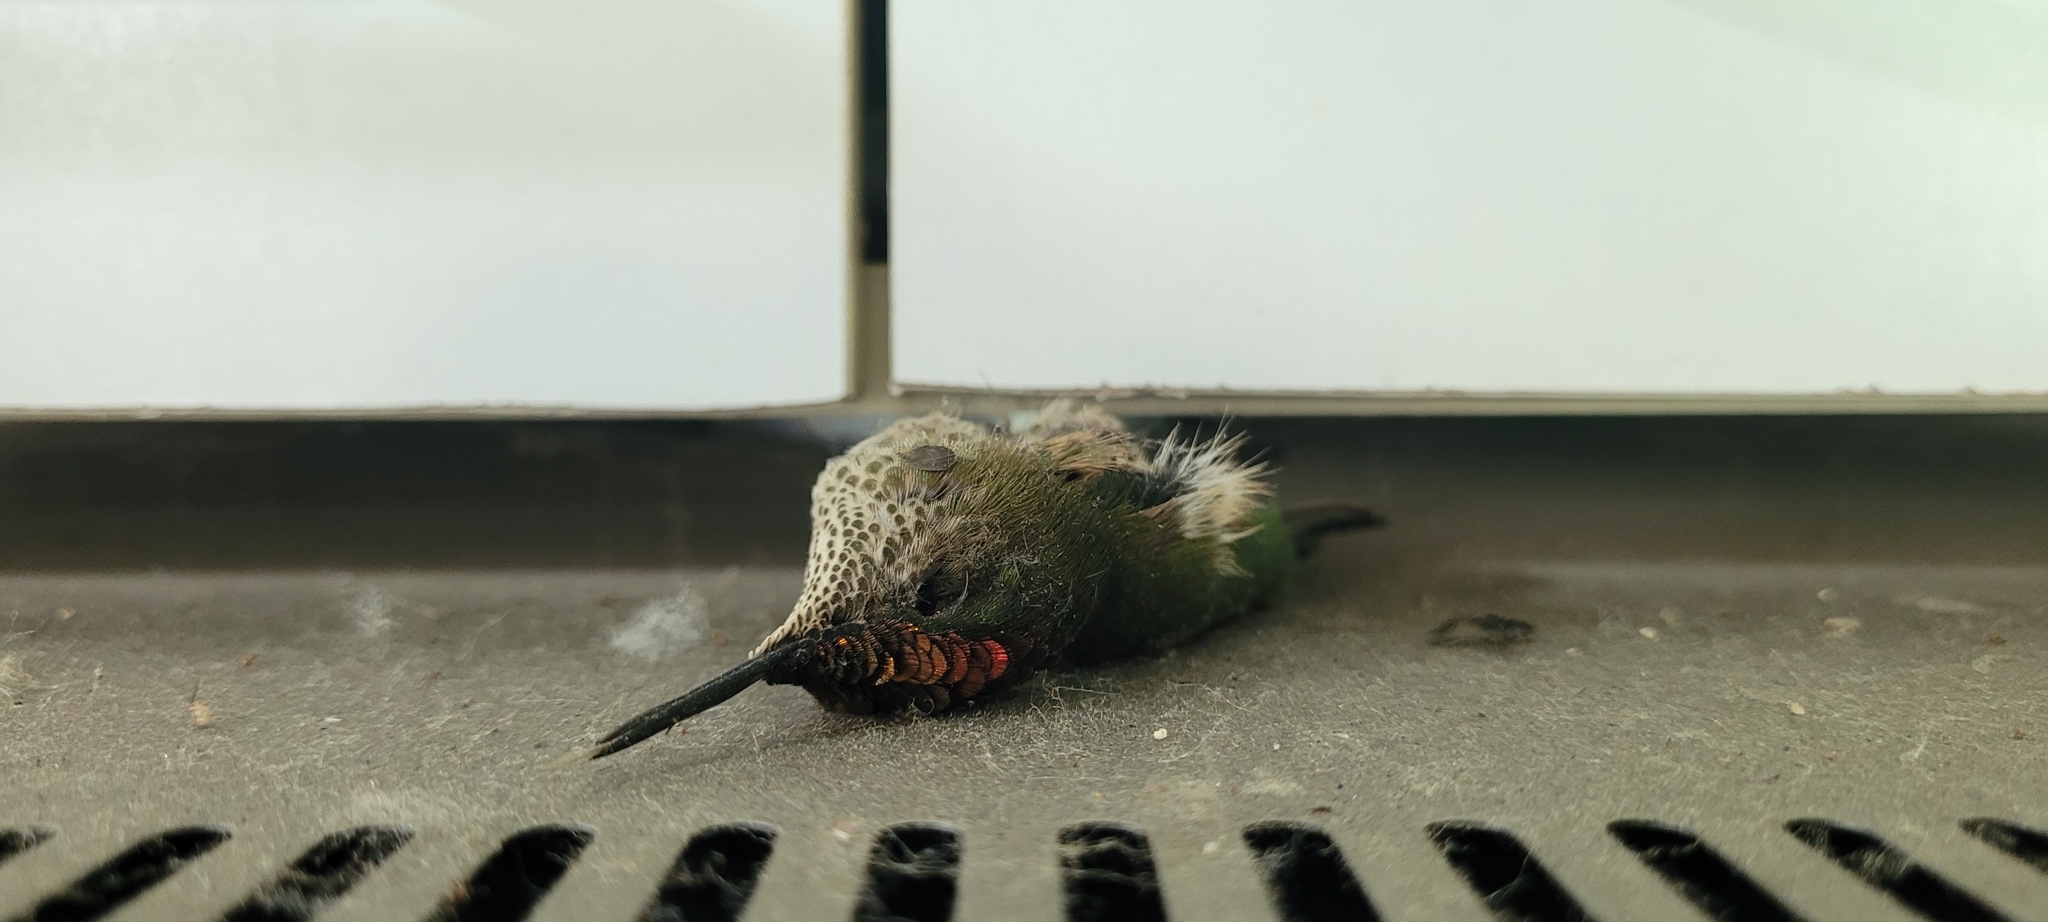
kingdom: Animalia
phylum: Chordata
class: Aves
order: Apodiformes
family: Trochilidae
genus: Sephanoides
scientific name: Sephanoides sephaniodes
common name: Green-backed firecrown
